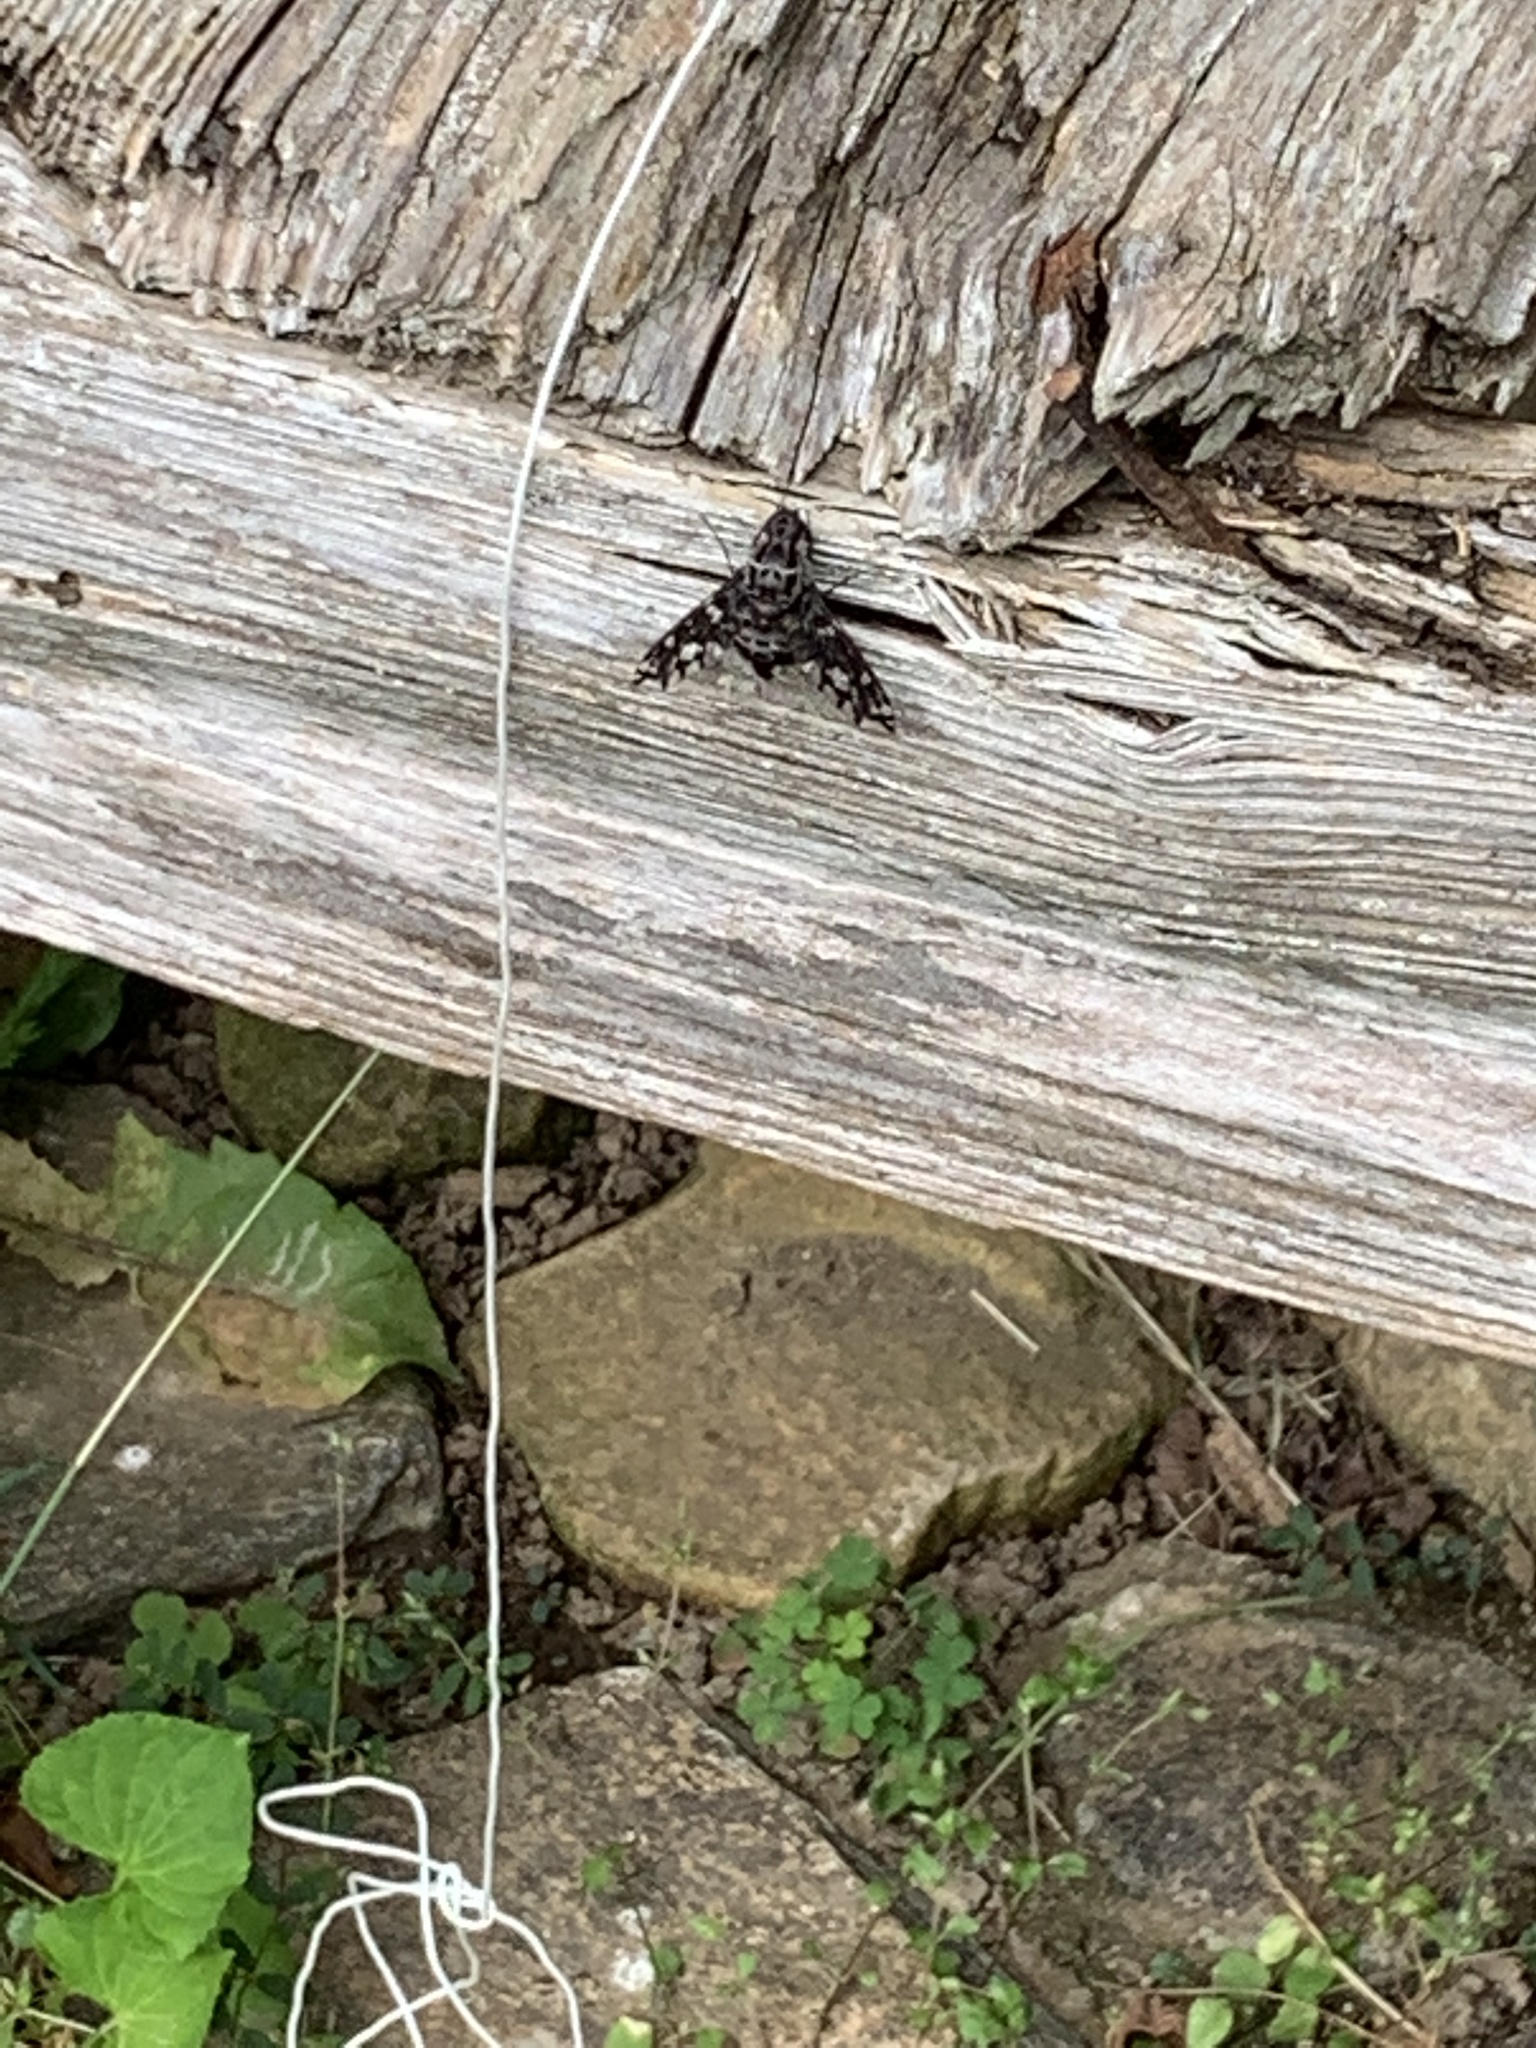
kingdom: Animalia
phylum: Arthropoda
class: Insecta
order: Diptera
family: Bombyliidae
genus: Xenox
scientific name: Xenox tigrinus
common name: Tiger bee fly
